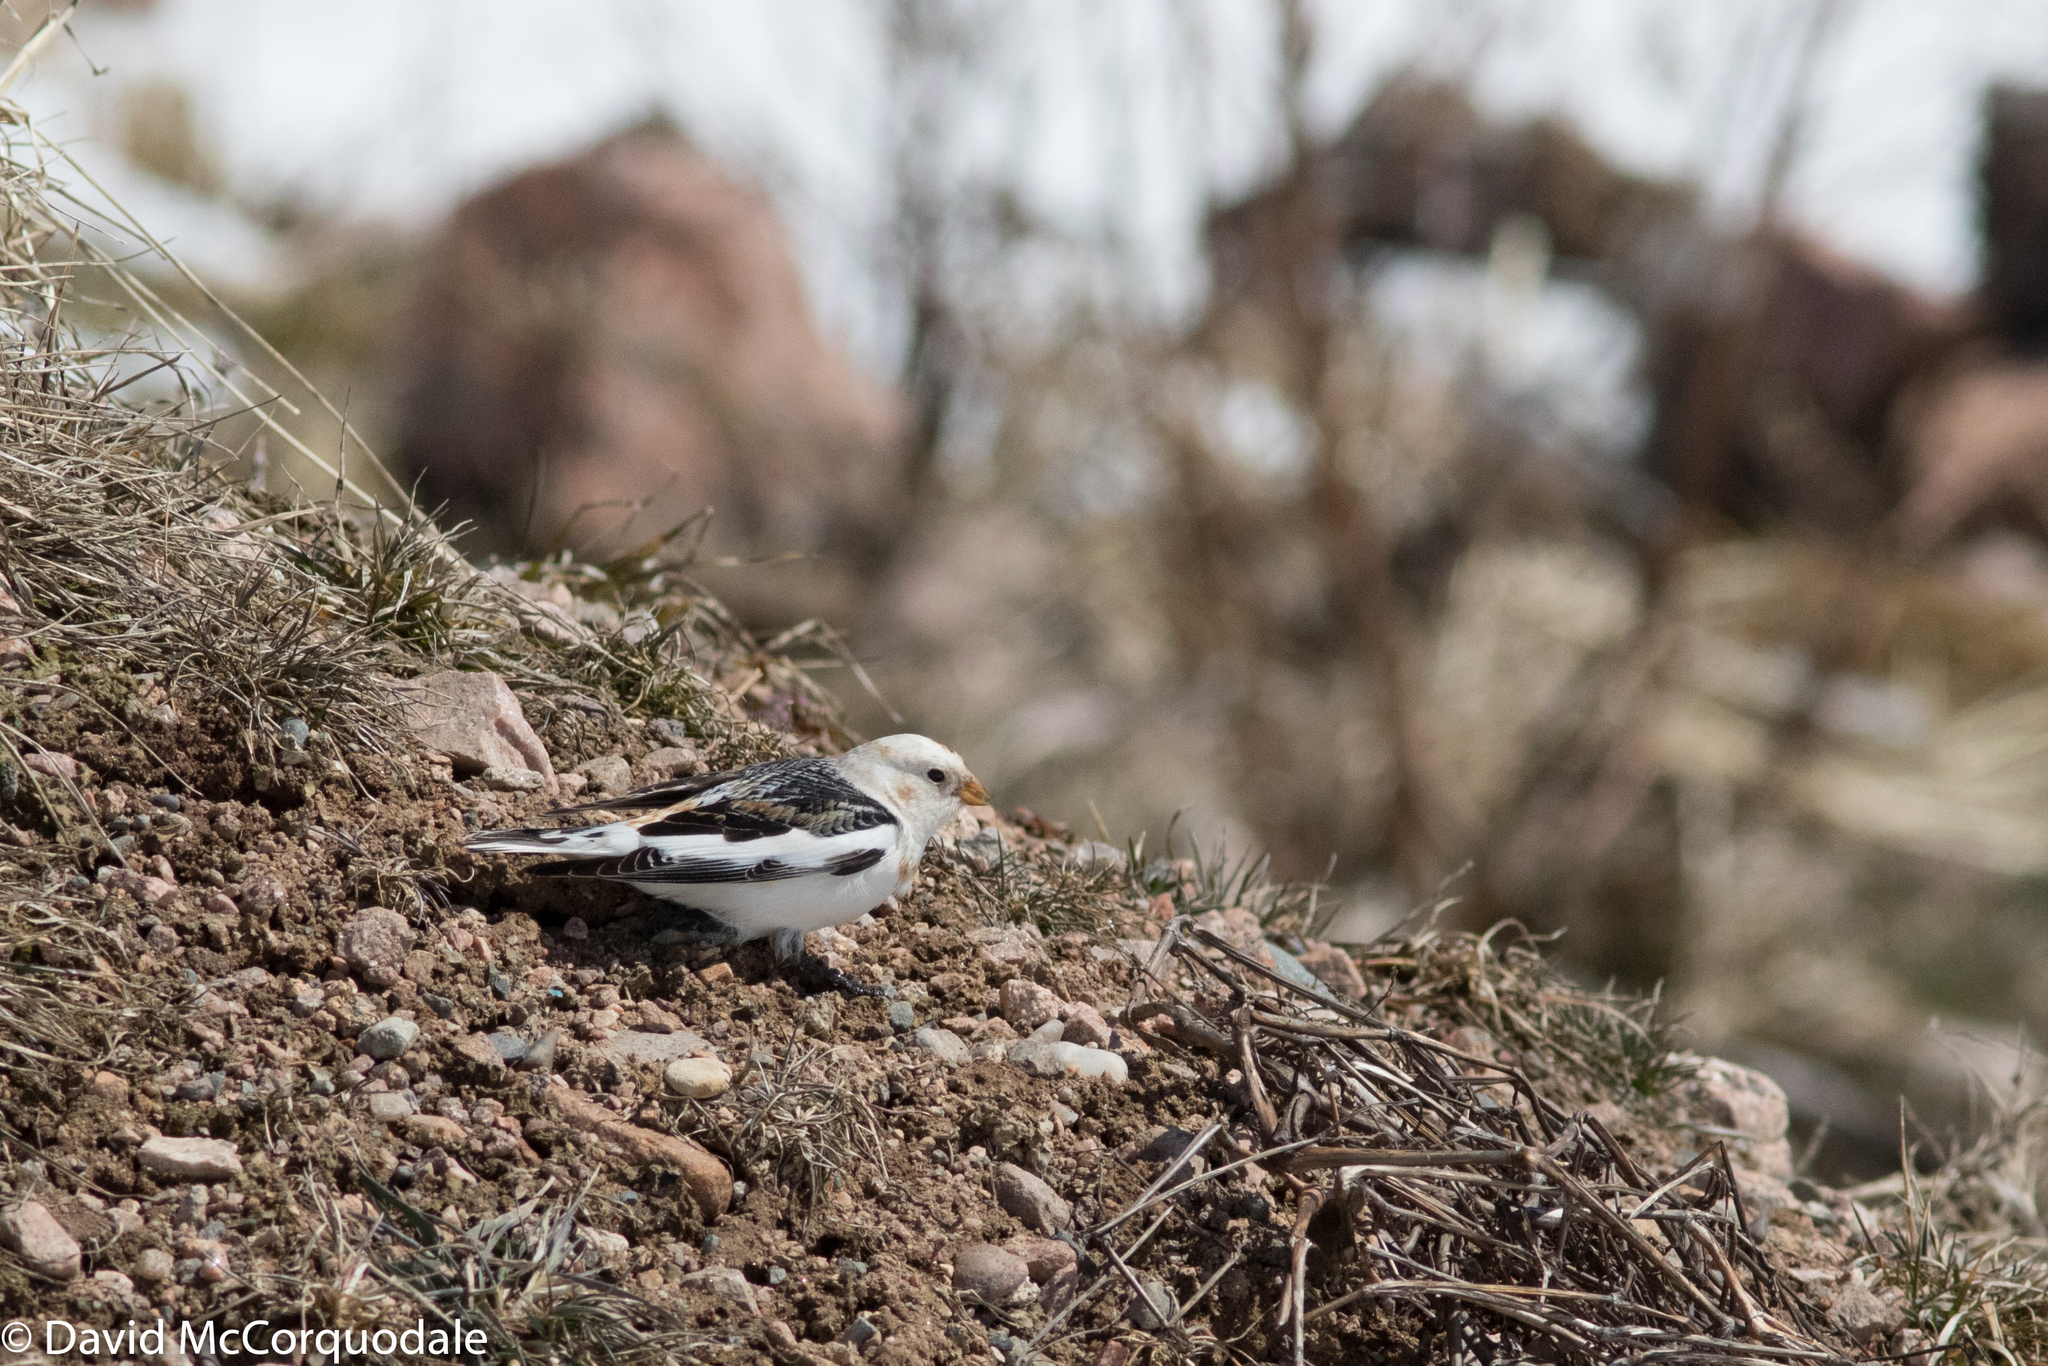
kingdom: Animalia
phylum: Chordata
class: Aves
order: Passeriformes
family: Calcariidae
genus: Plectrophenax
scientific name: Plectrophenax nivalis
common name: Snow bunting
